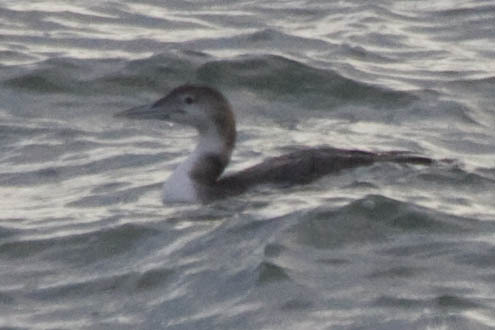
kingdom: Animalia
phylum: Chordata
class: Aves
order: Gaviiformes
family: Gaviidae
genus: Gavia
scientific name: Gavia immer
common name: Common loon
